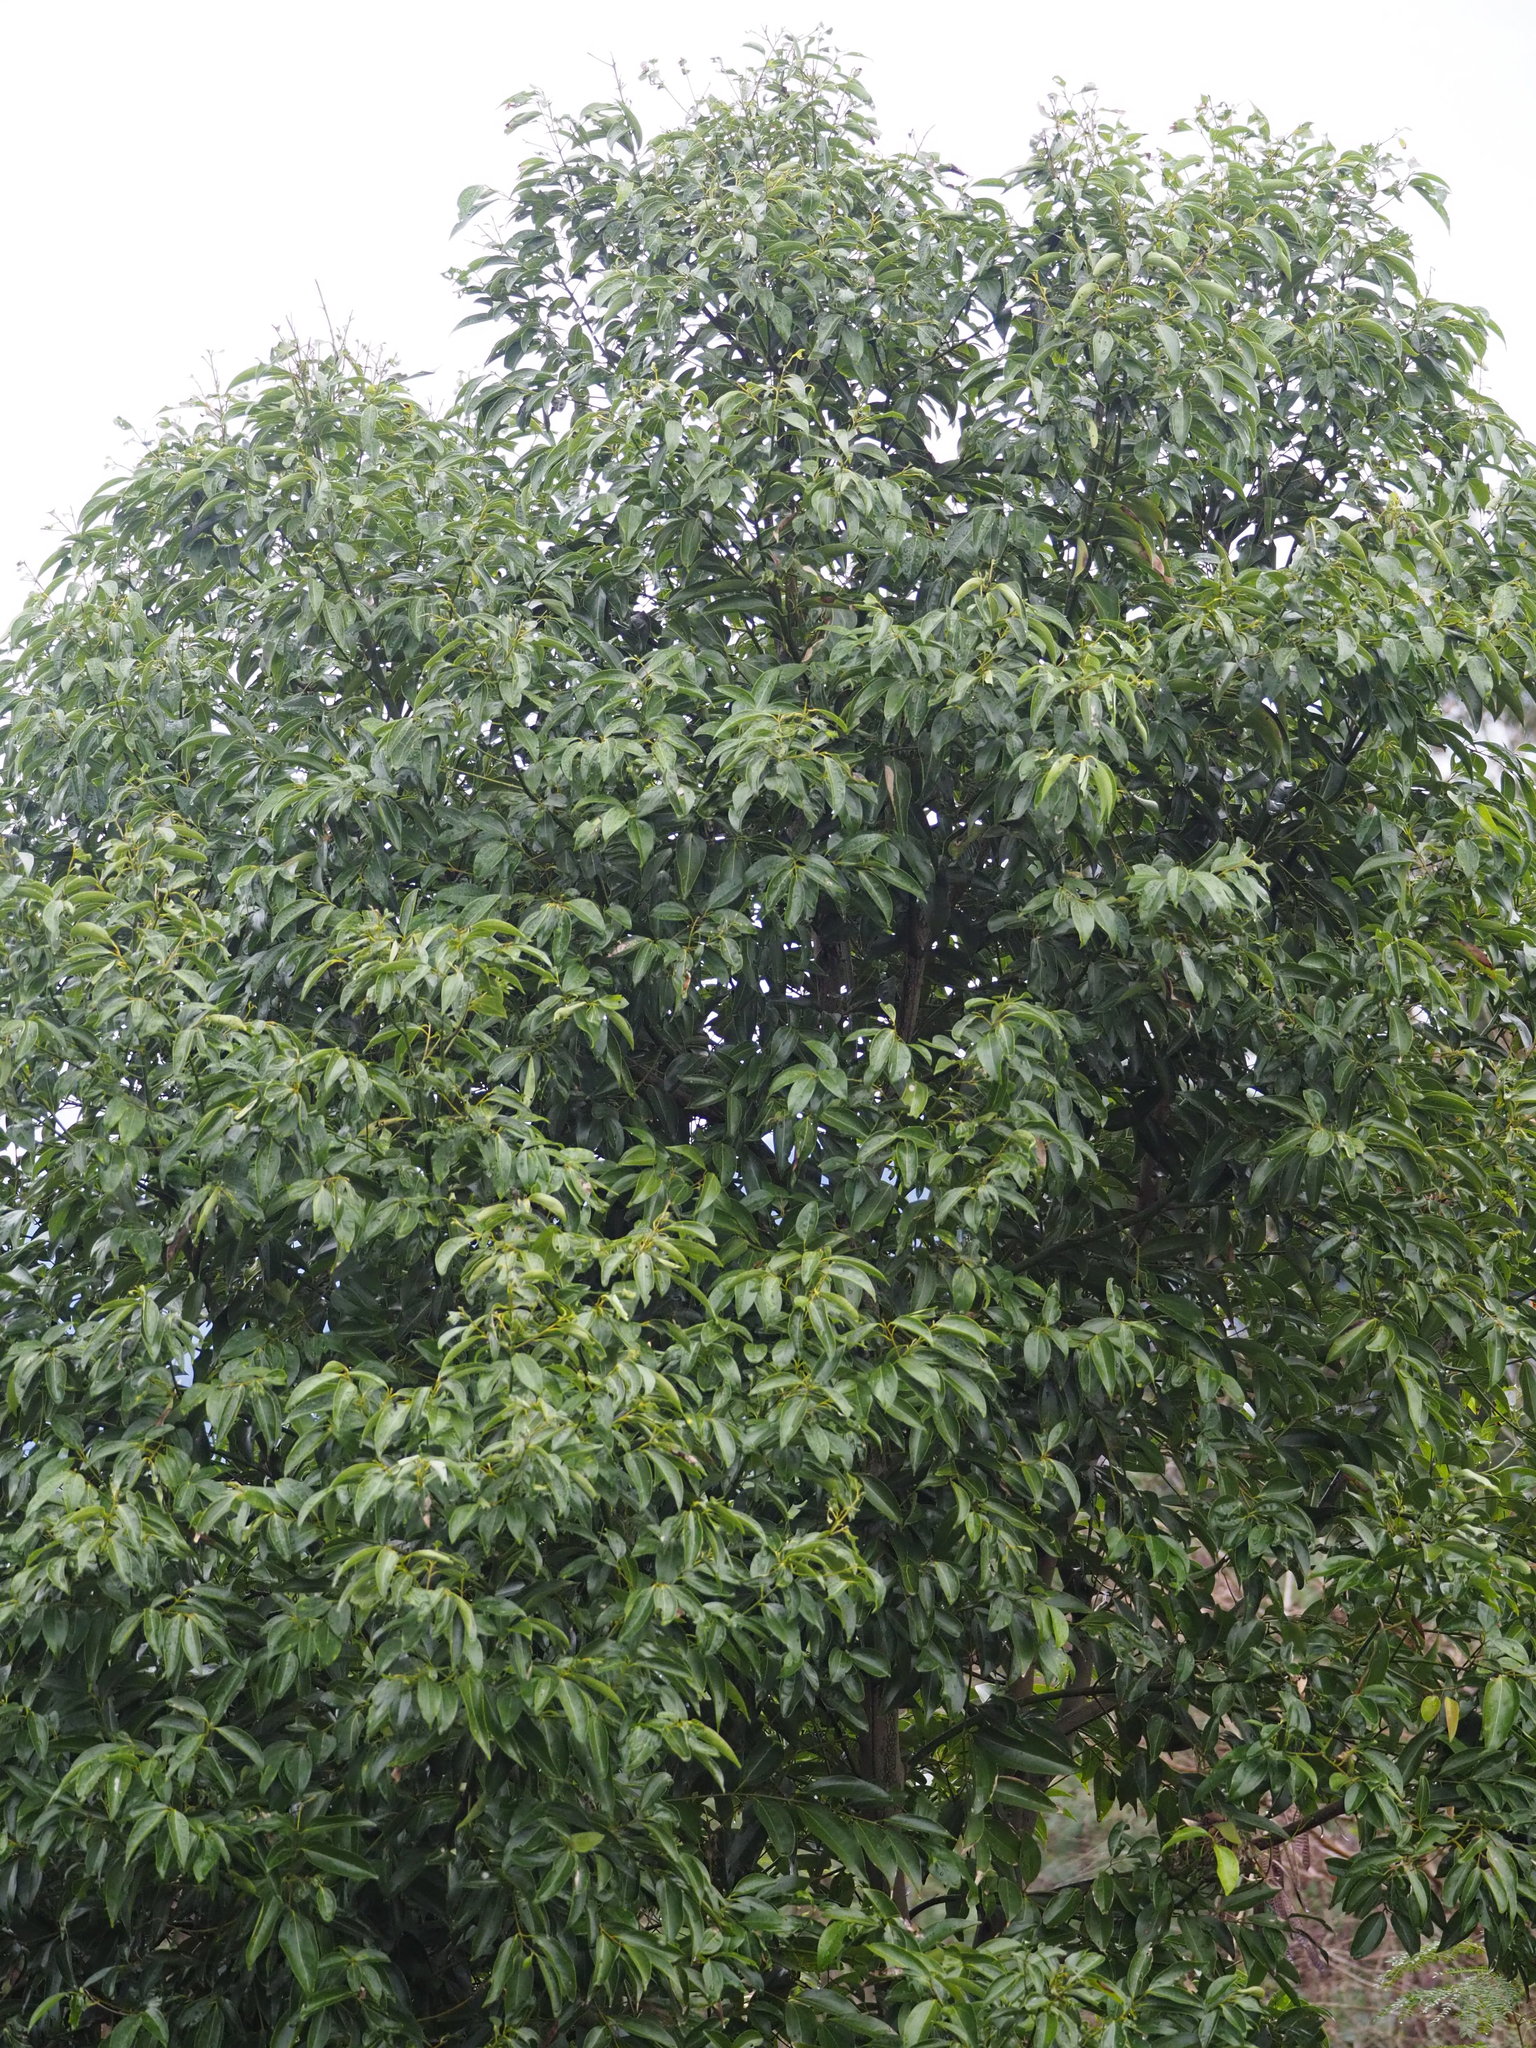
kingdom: Plantae
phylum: Tracheophyta
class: Magnoliopsida
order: Laurales
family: Lauraceae
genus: Cinnamomum
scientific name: Cinnamomum burmanni
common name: Padang cassia
